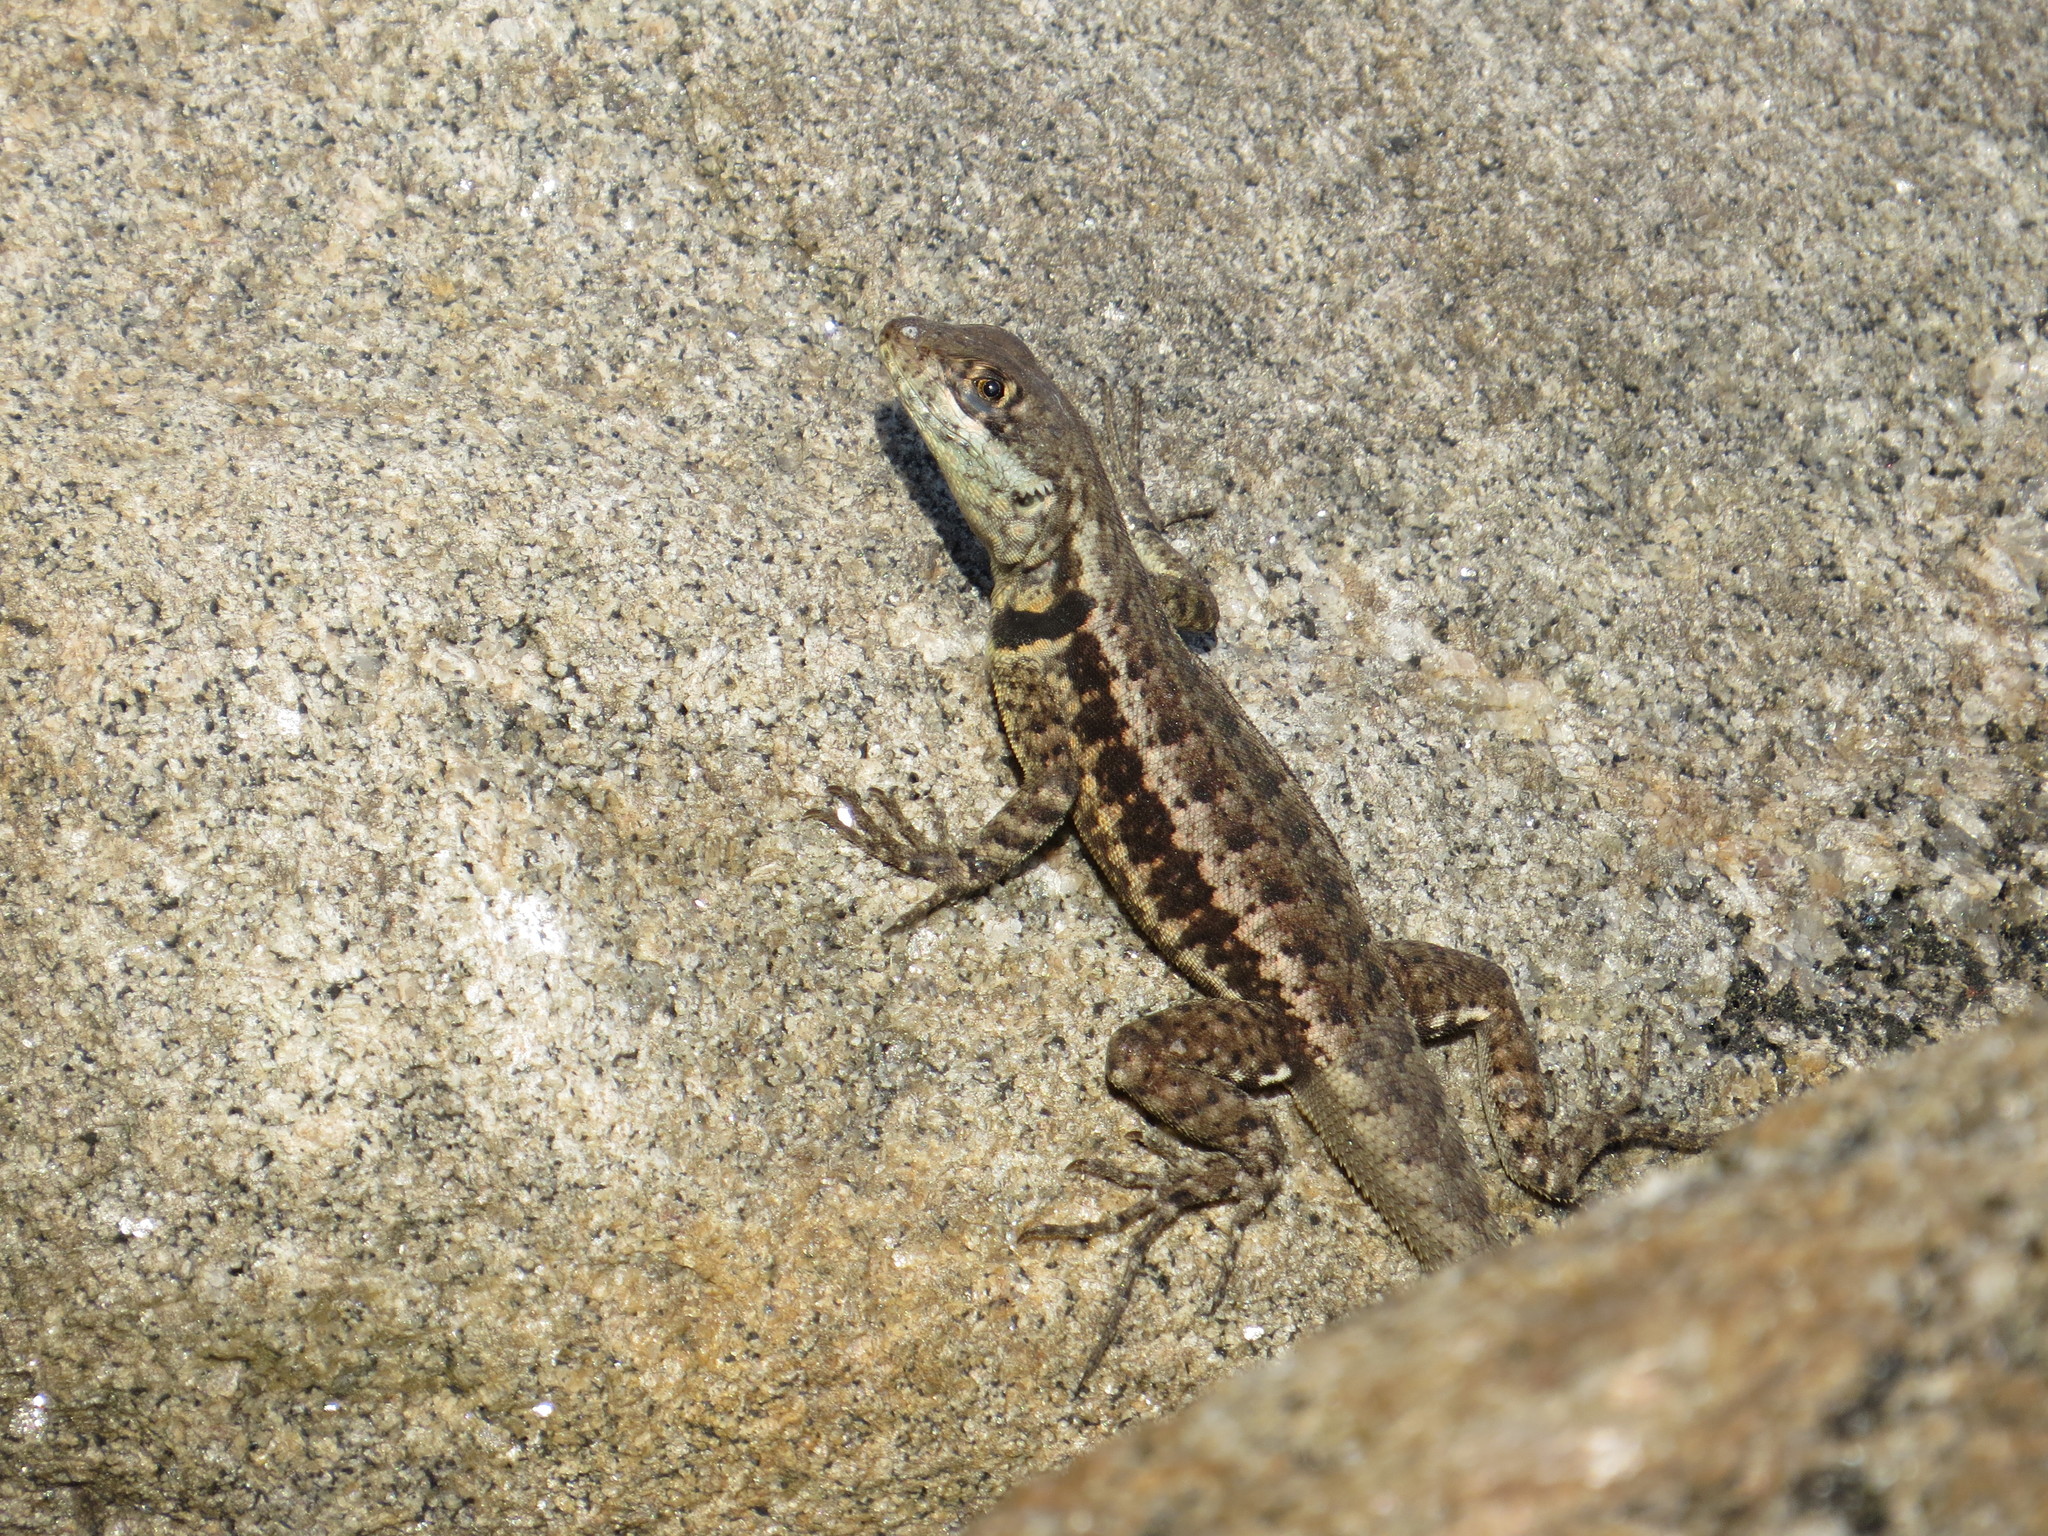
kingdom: Animalia
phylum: Chordata
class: Squamata
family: Tropiduridae
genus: Tropidurus
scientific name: Tropidurus torquatus
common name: Amazon lava lizard
